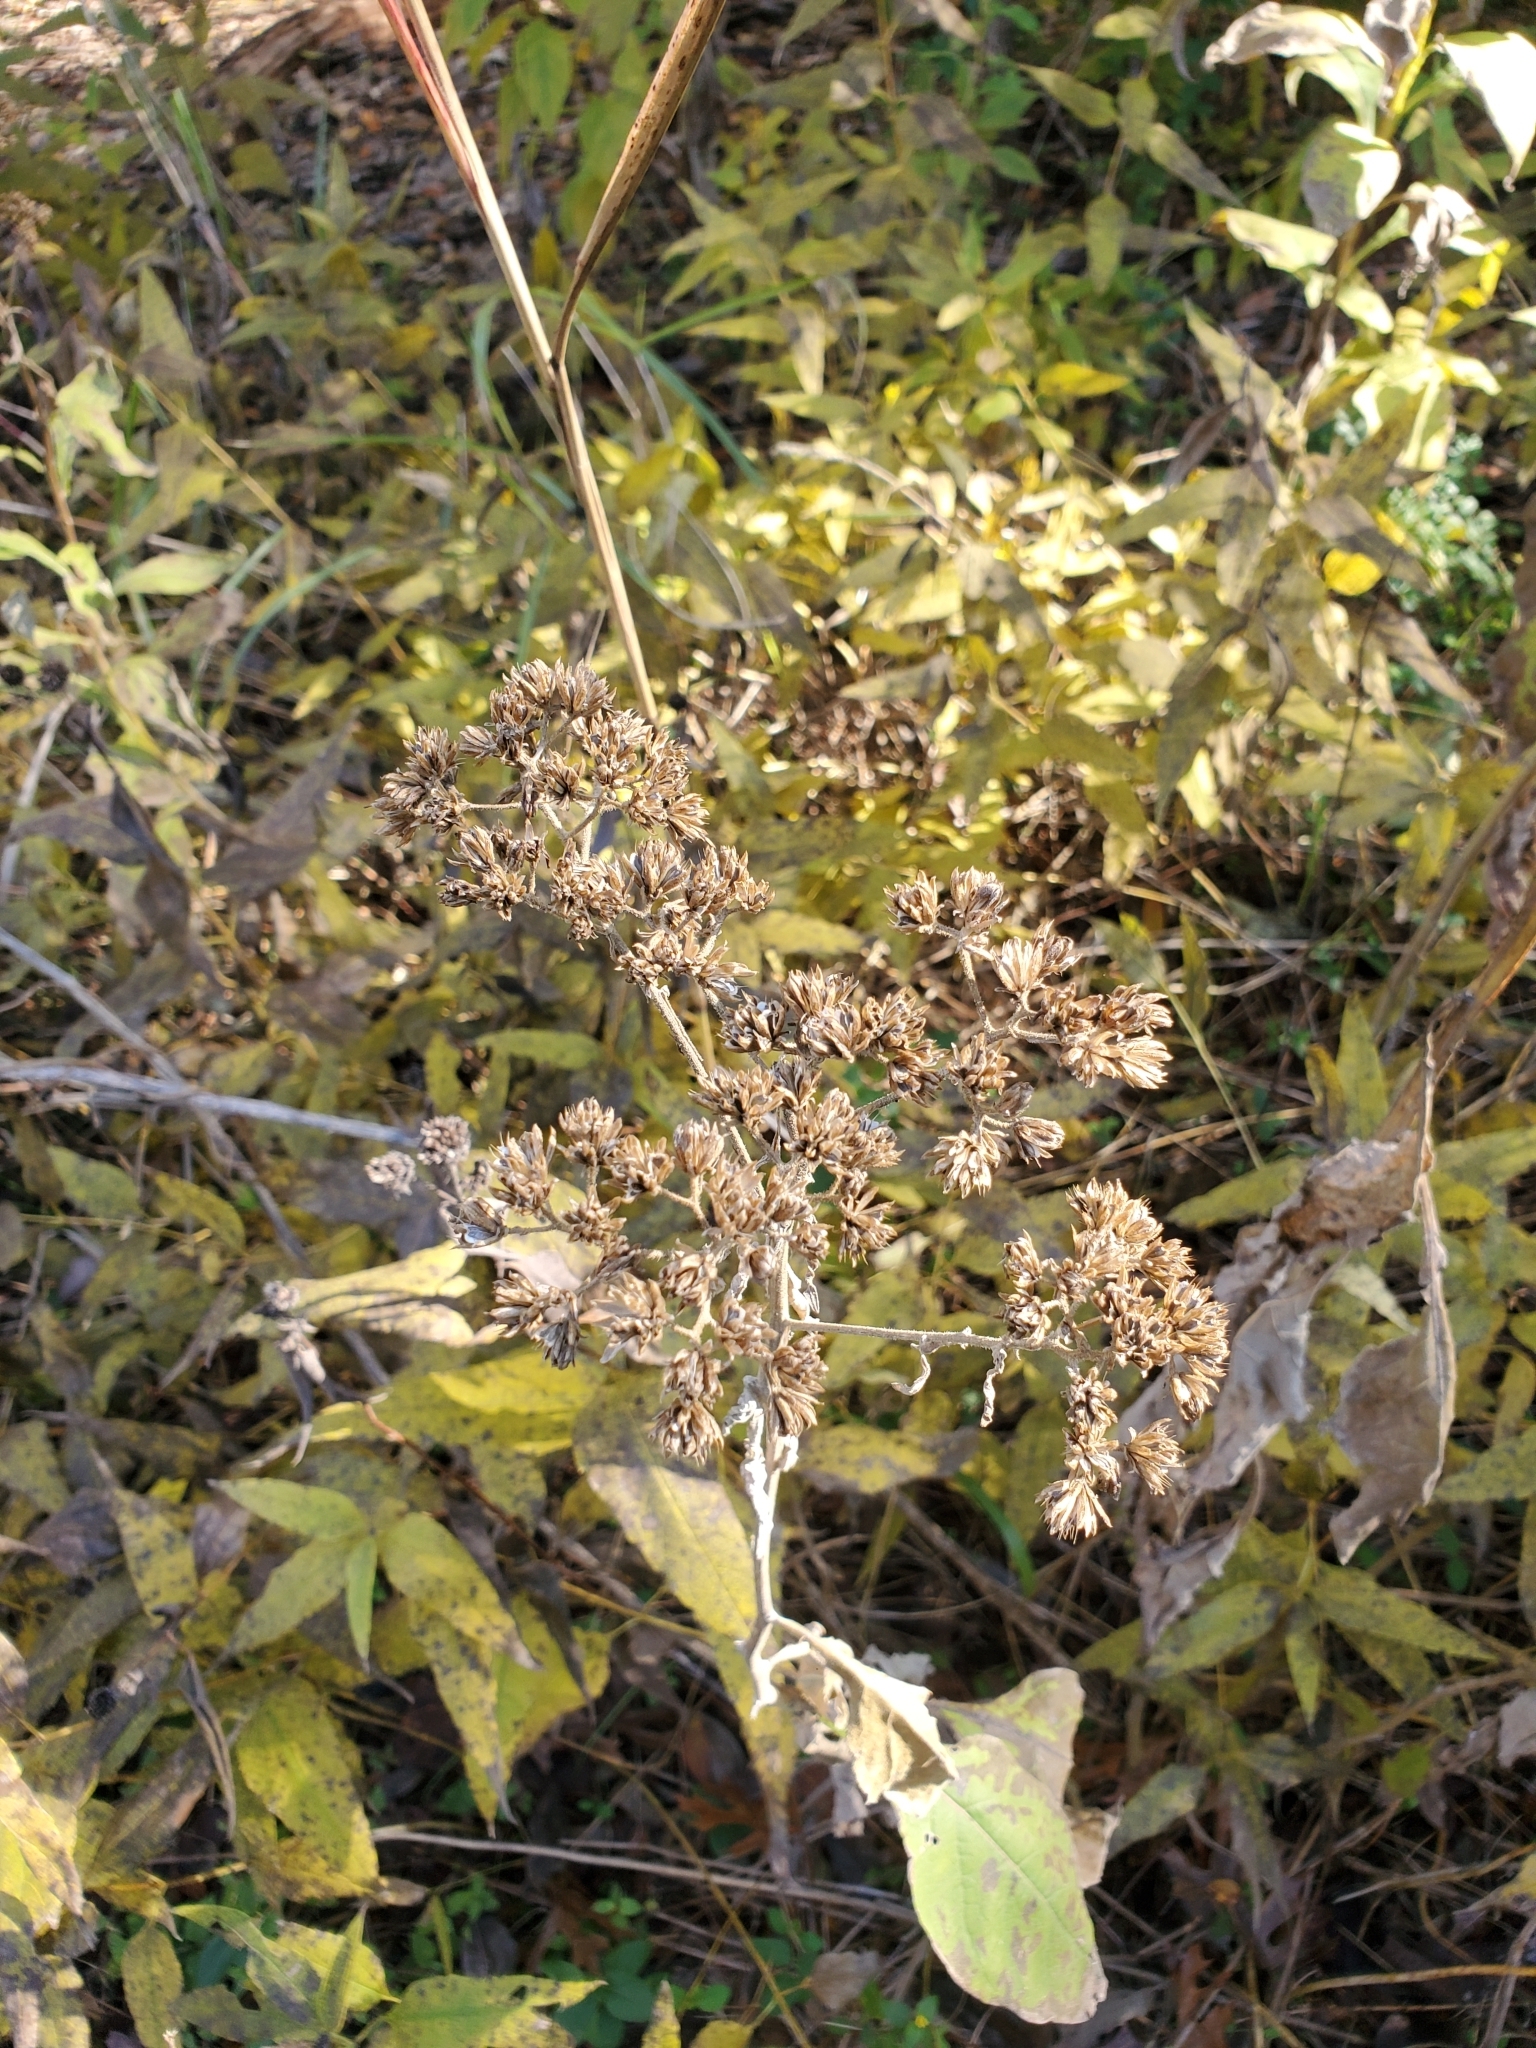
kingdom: Plantae
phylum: Tracheophyta
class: Magnoliopsida
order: Asterales
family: Asteraceae
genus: Verbesina
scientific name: Verbesina virginica
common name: Frostweed
